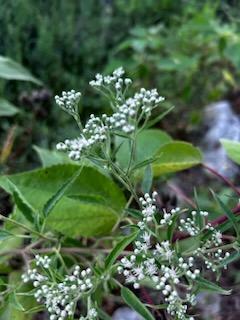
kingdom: Plantae
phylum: Tracheophyta
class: Magnoliopsida
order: Asterales
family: Asteraceae
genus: Eupatorium
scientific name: Eupatorium serotinum
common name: Late boneset
